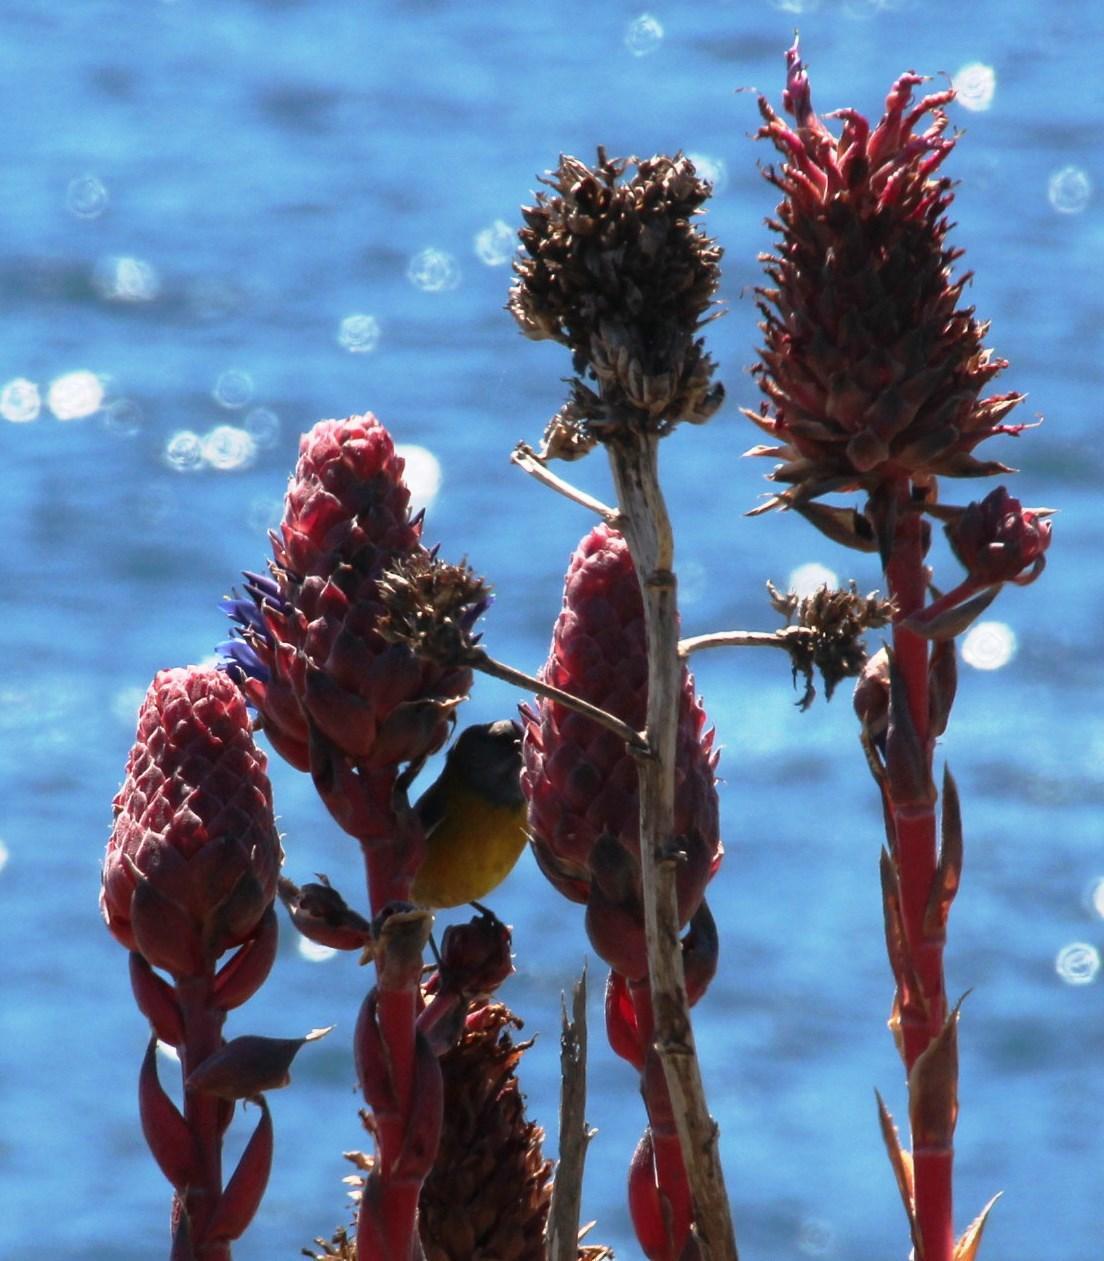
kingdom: Animalia
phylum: Chordata
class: Aves
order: Passeriformes
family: Thraupidae
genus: Phrygilus
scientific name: Phrygilus gayi
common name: Grey-hooded sierra finch
